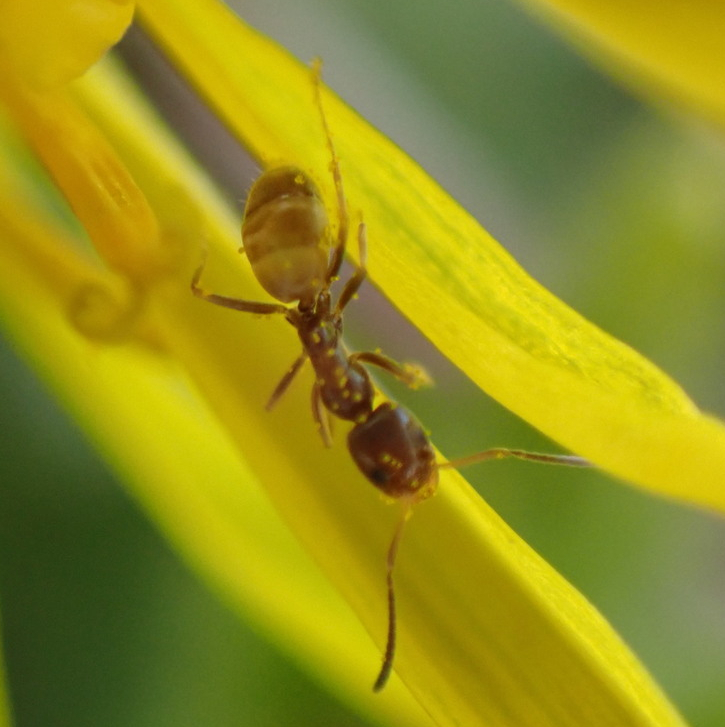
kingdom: Animalia
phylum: Arthropoda
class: Insecta
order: Hymenoptera
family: Formicidae
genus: Forelius
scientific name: Forelius pruinosus
